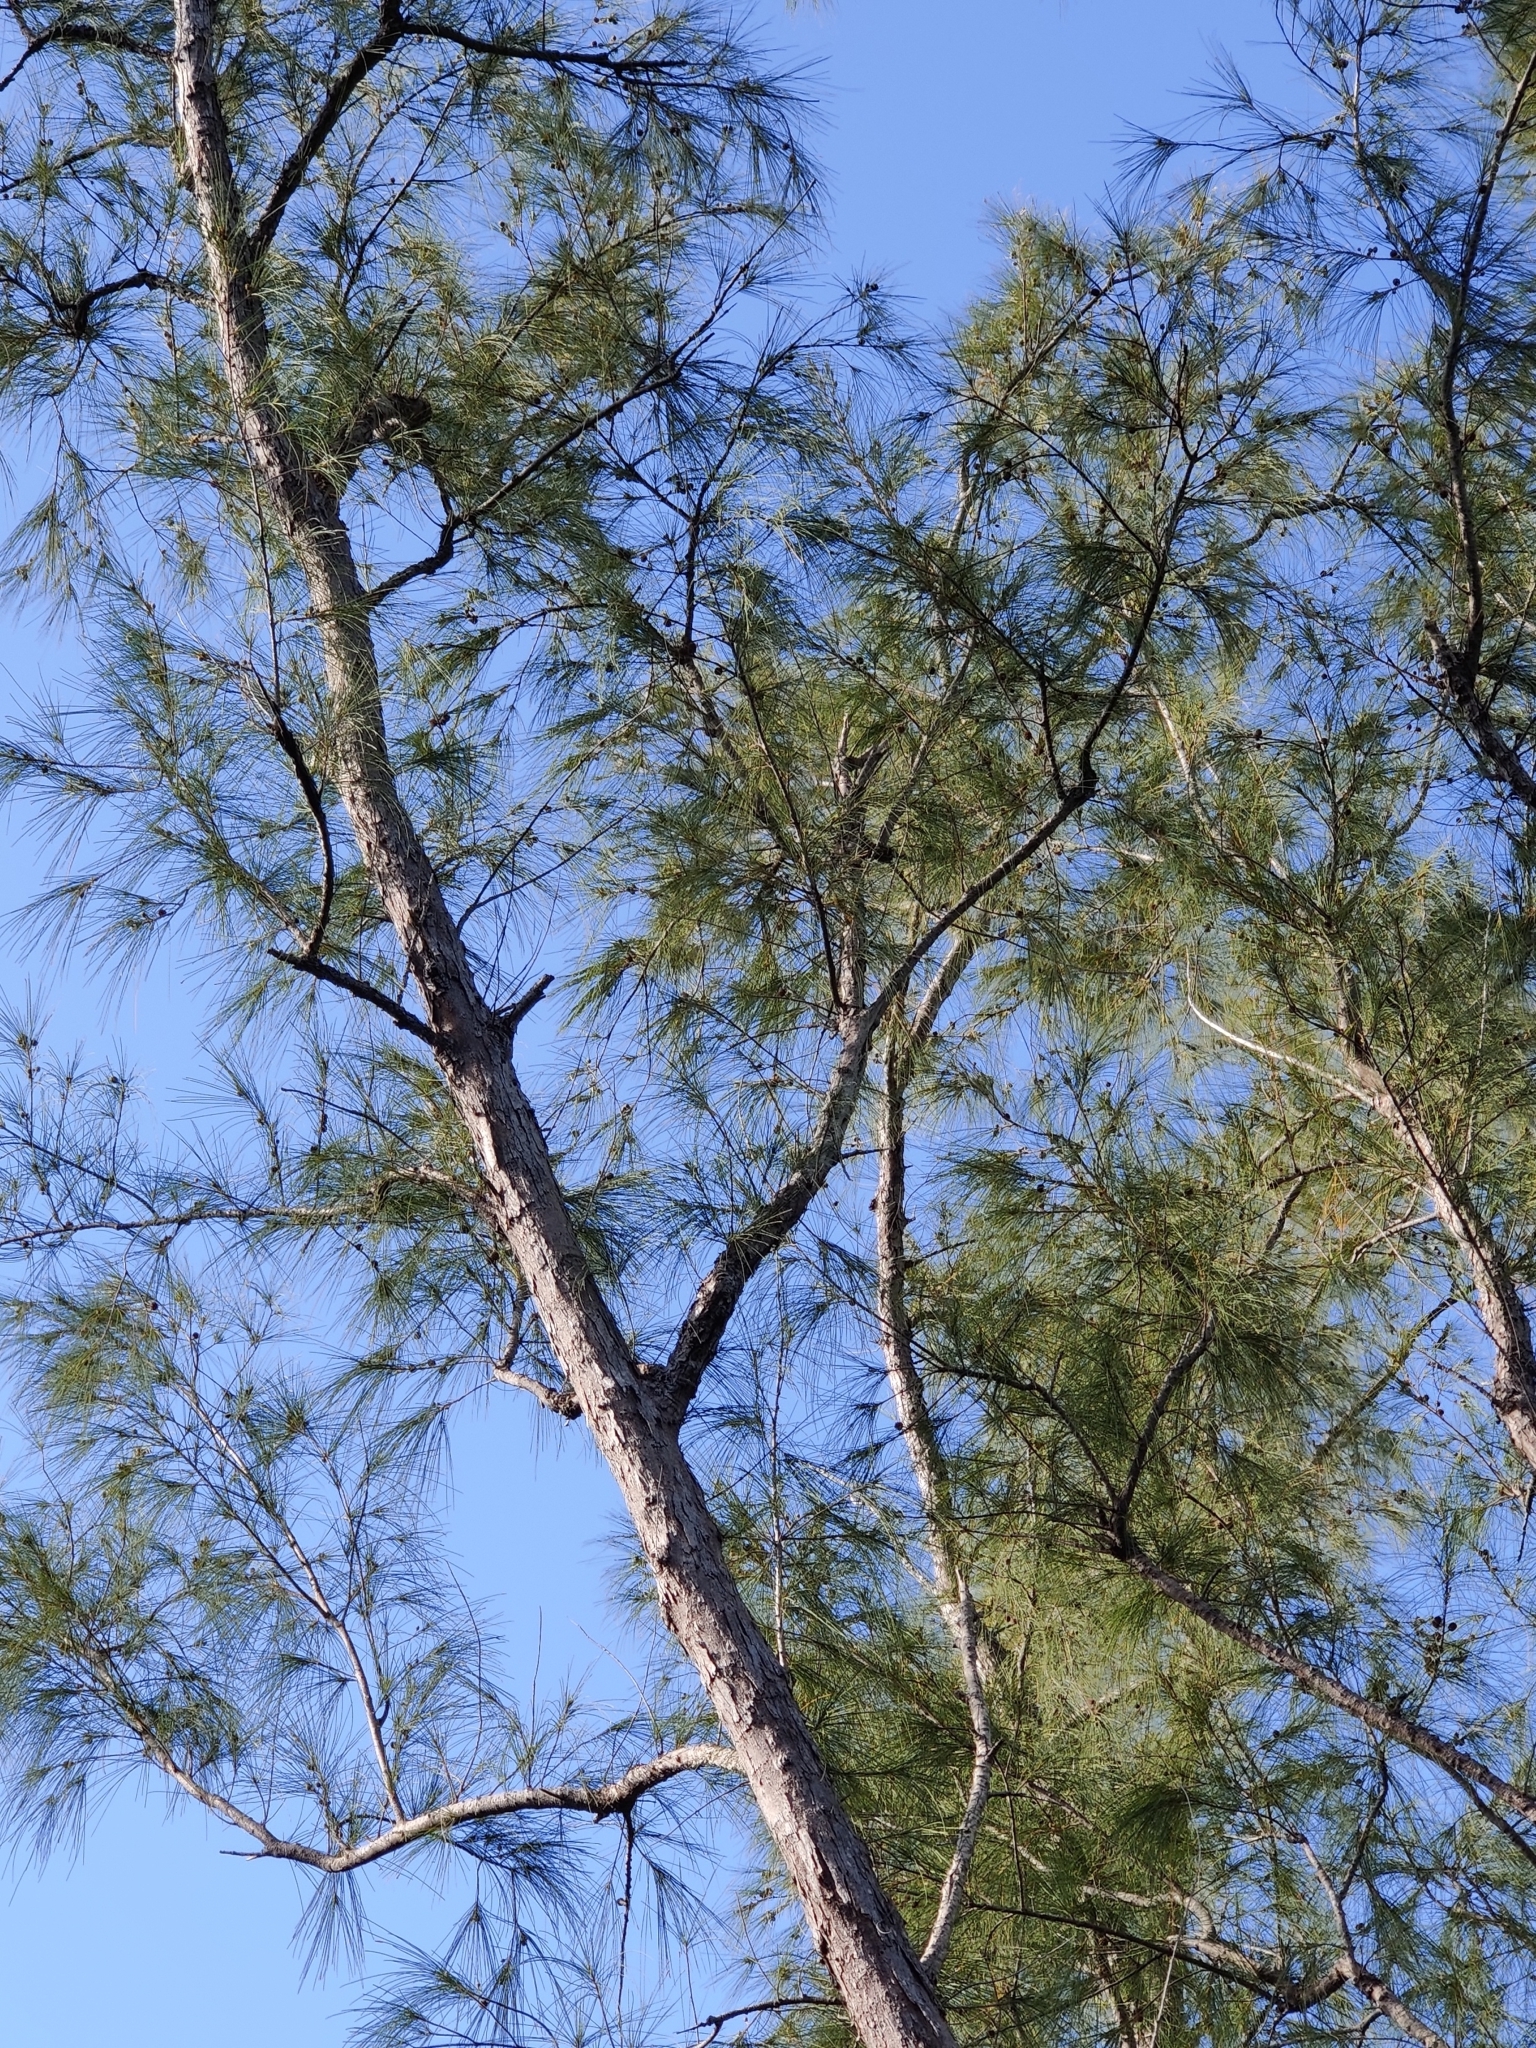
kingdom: Plantae
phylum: Tracheophyta
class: Magnoliopsida
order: Fagales
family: Casuarinaceae
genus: Casuarina
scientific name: Casuarina equisetifolia
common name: Beach sheoak
